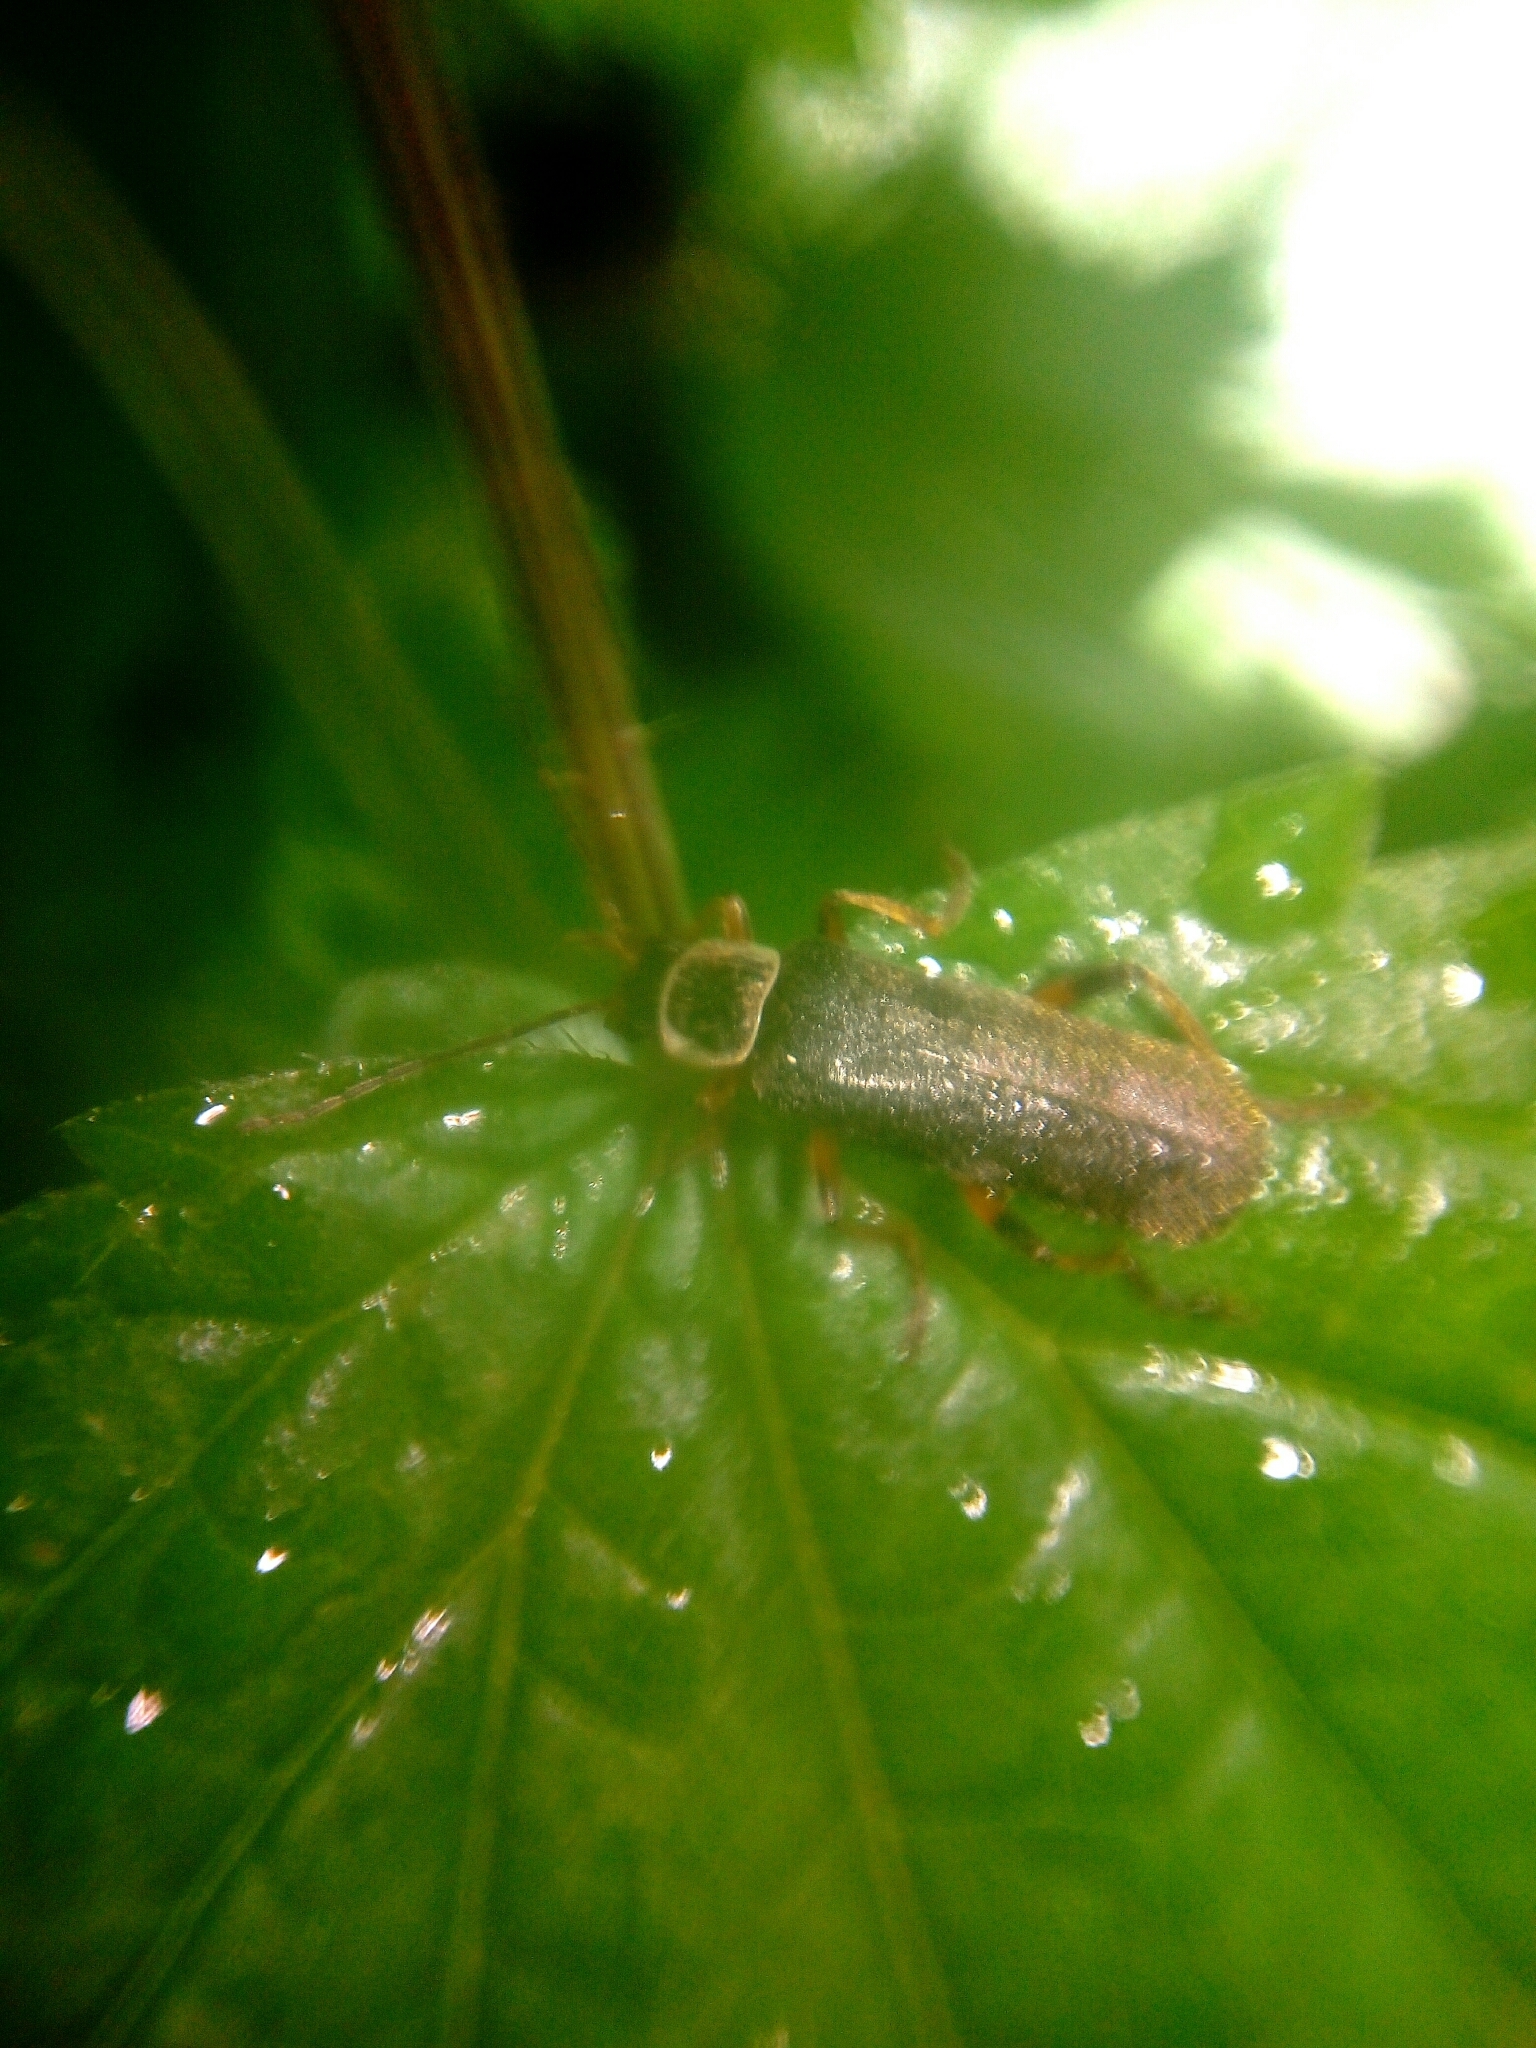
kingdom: Animalia
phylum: Arthropoda
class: Insecta
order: Coleoptera
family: Cantharidae
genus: Cantharis
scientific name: Cantharis nigricans
